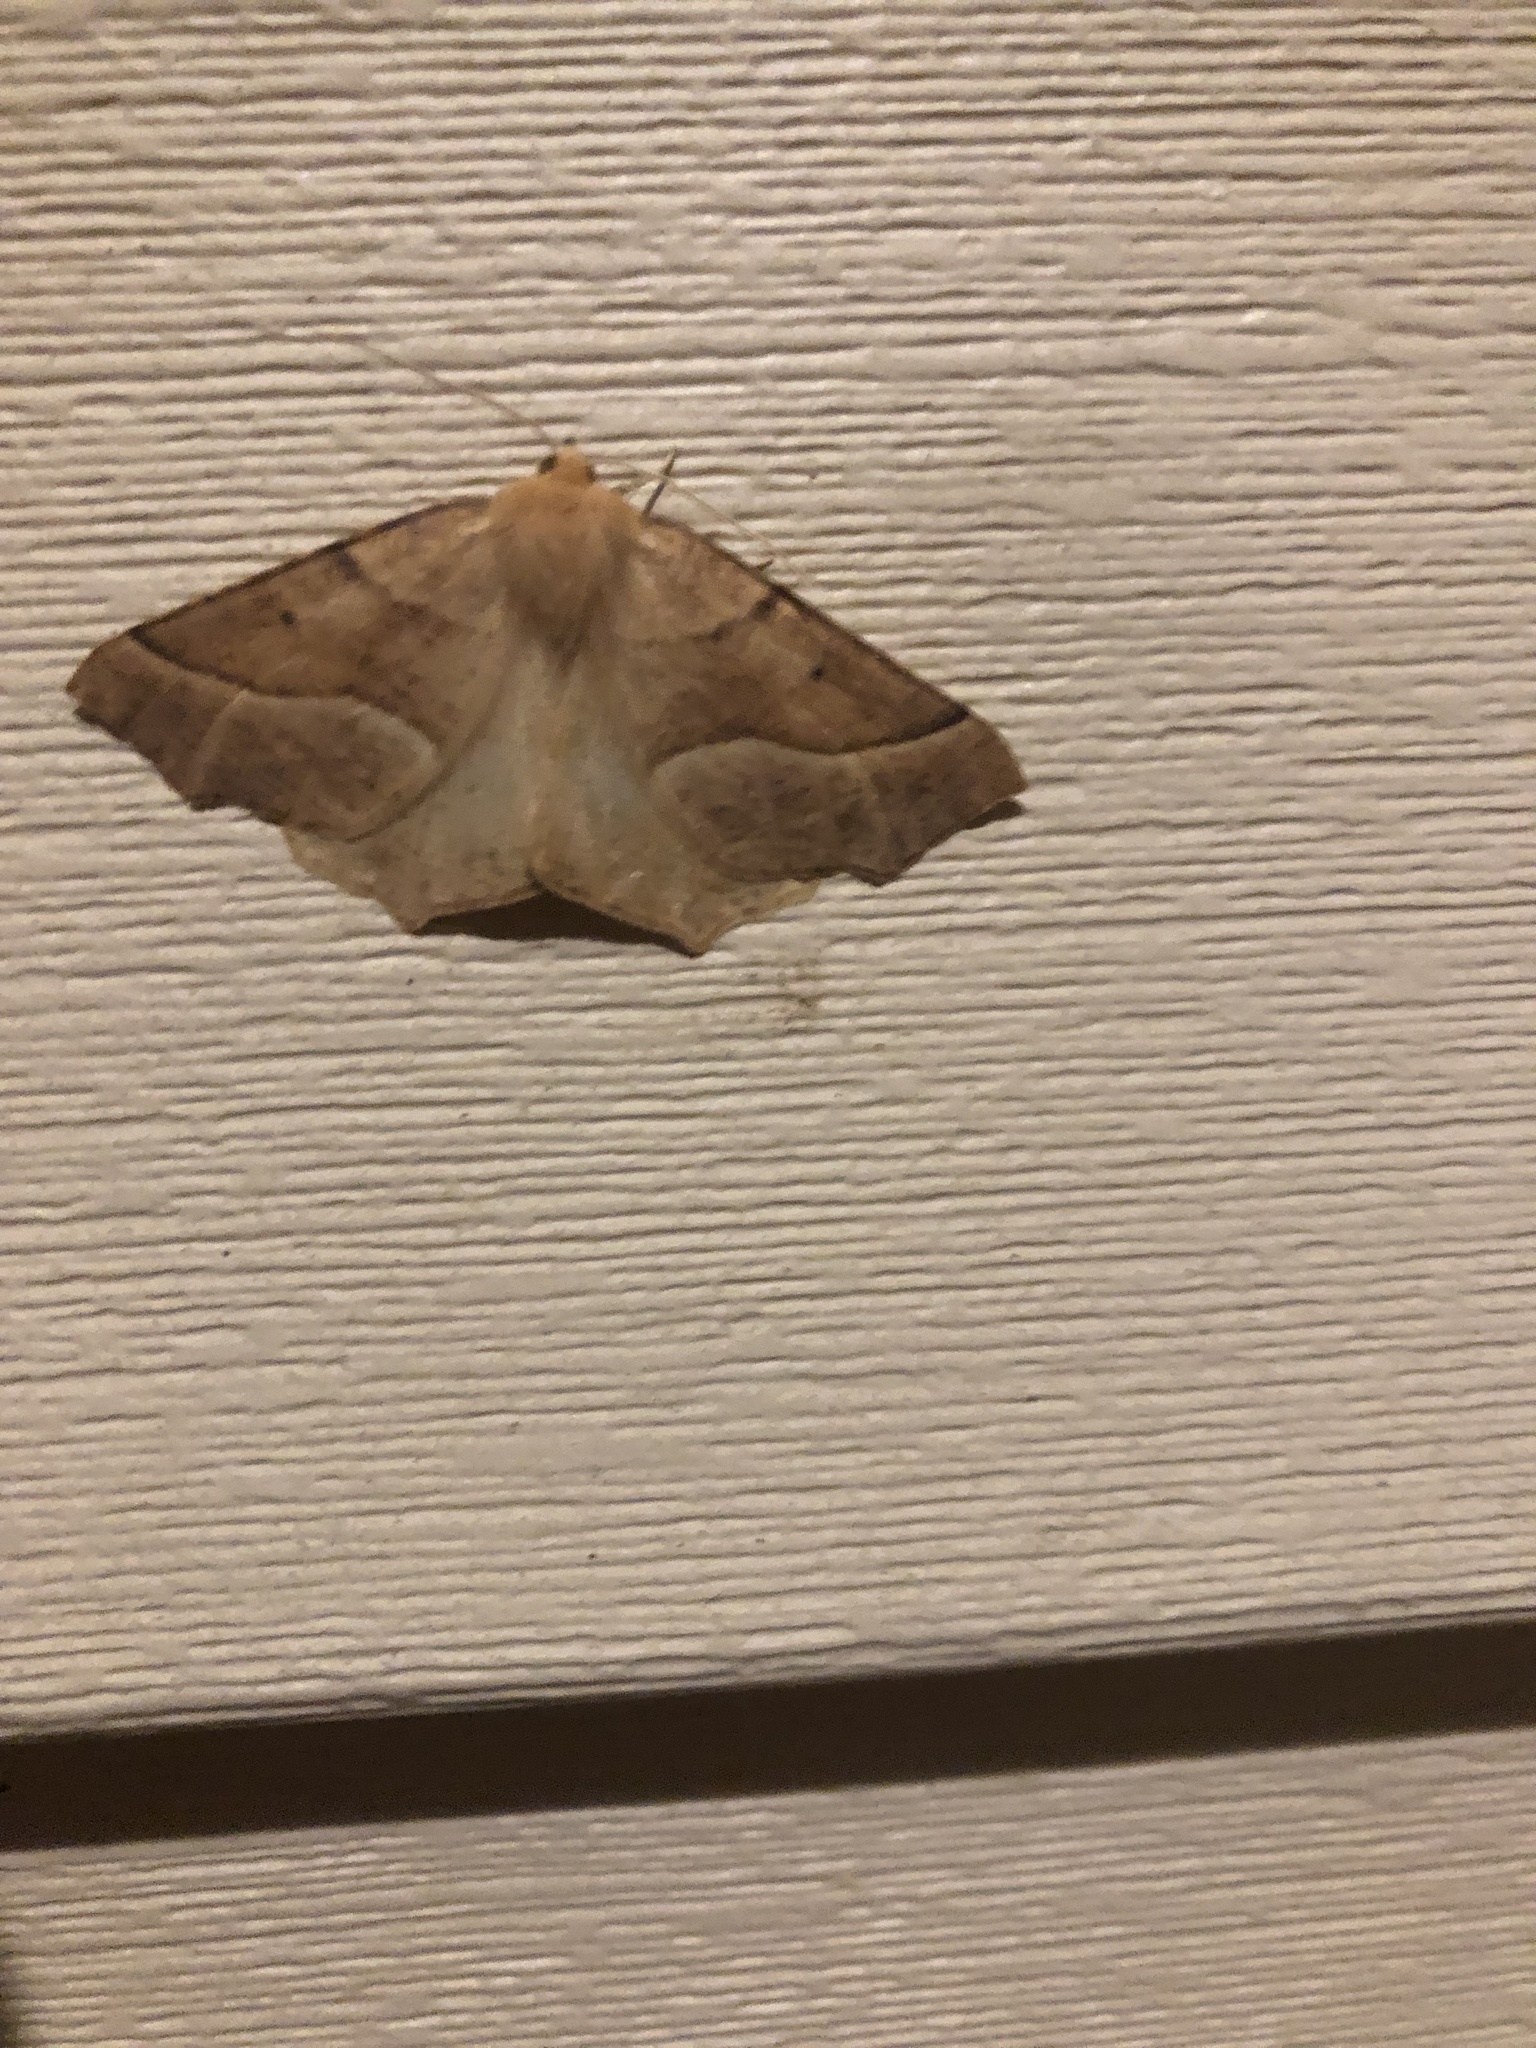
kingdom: Animalia
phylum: Arthropoda
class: Insecta
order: Lepidoptera
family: Geometridae
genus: Synaxis
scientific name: Synaxis jubararia
